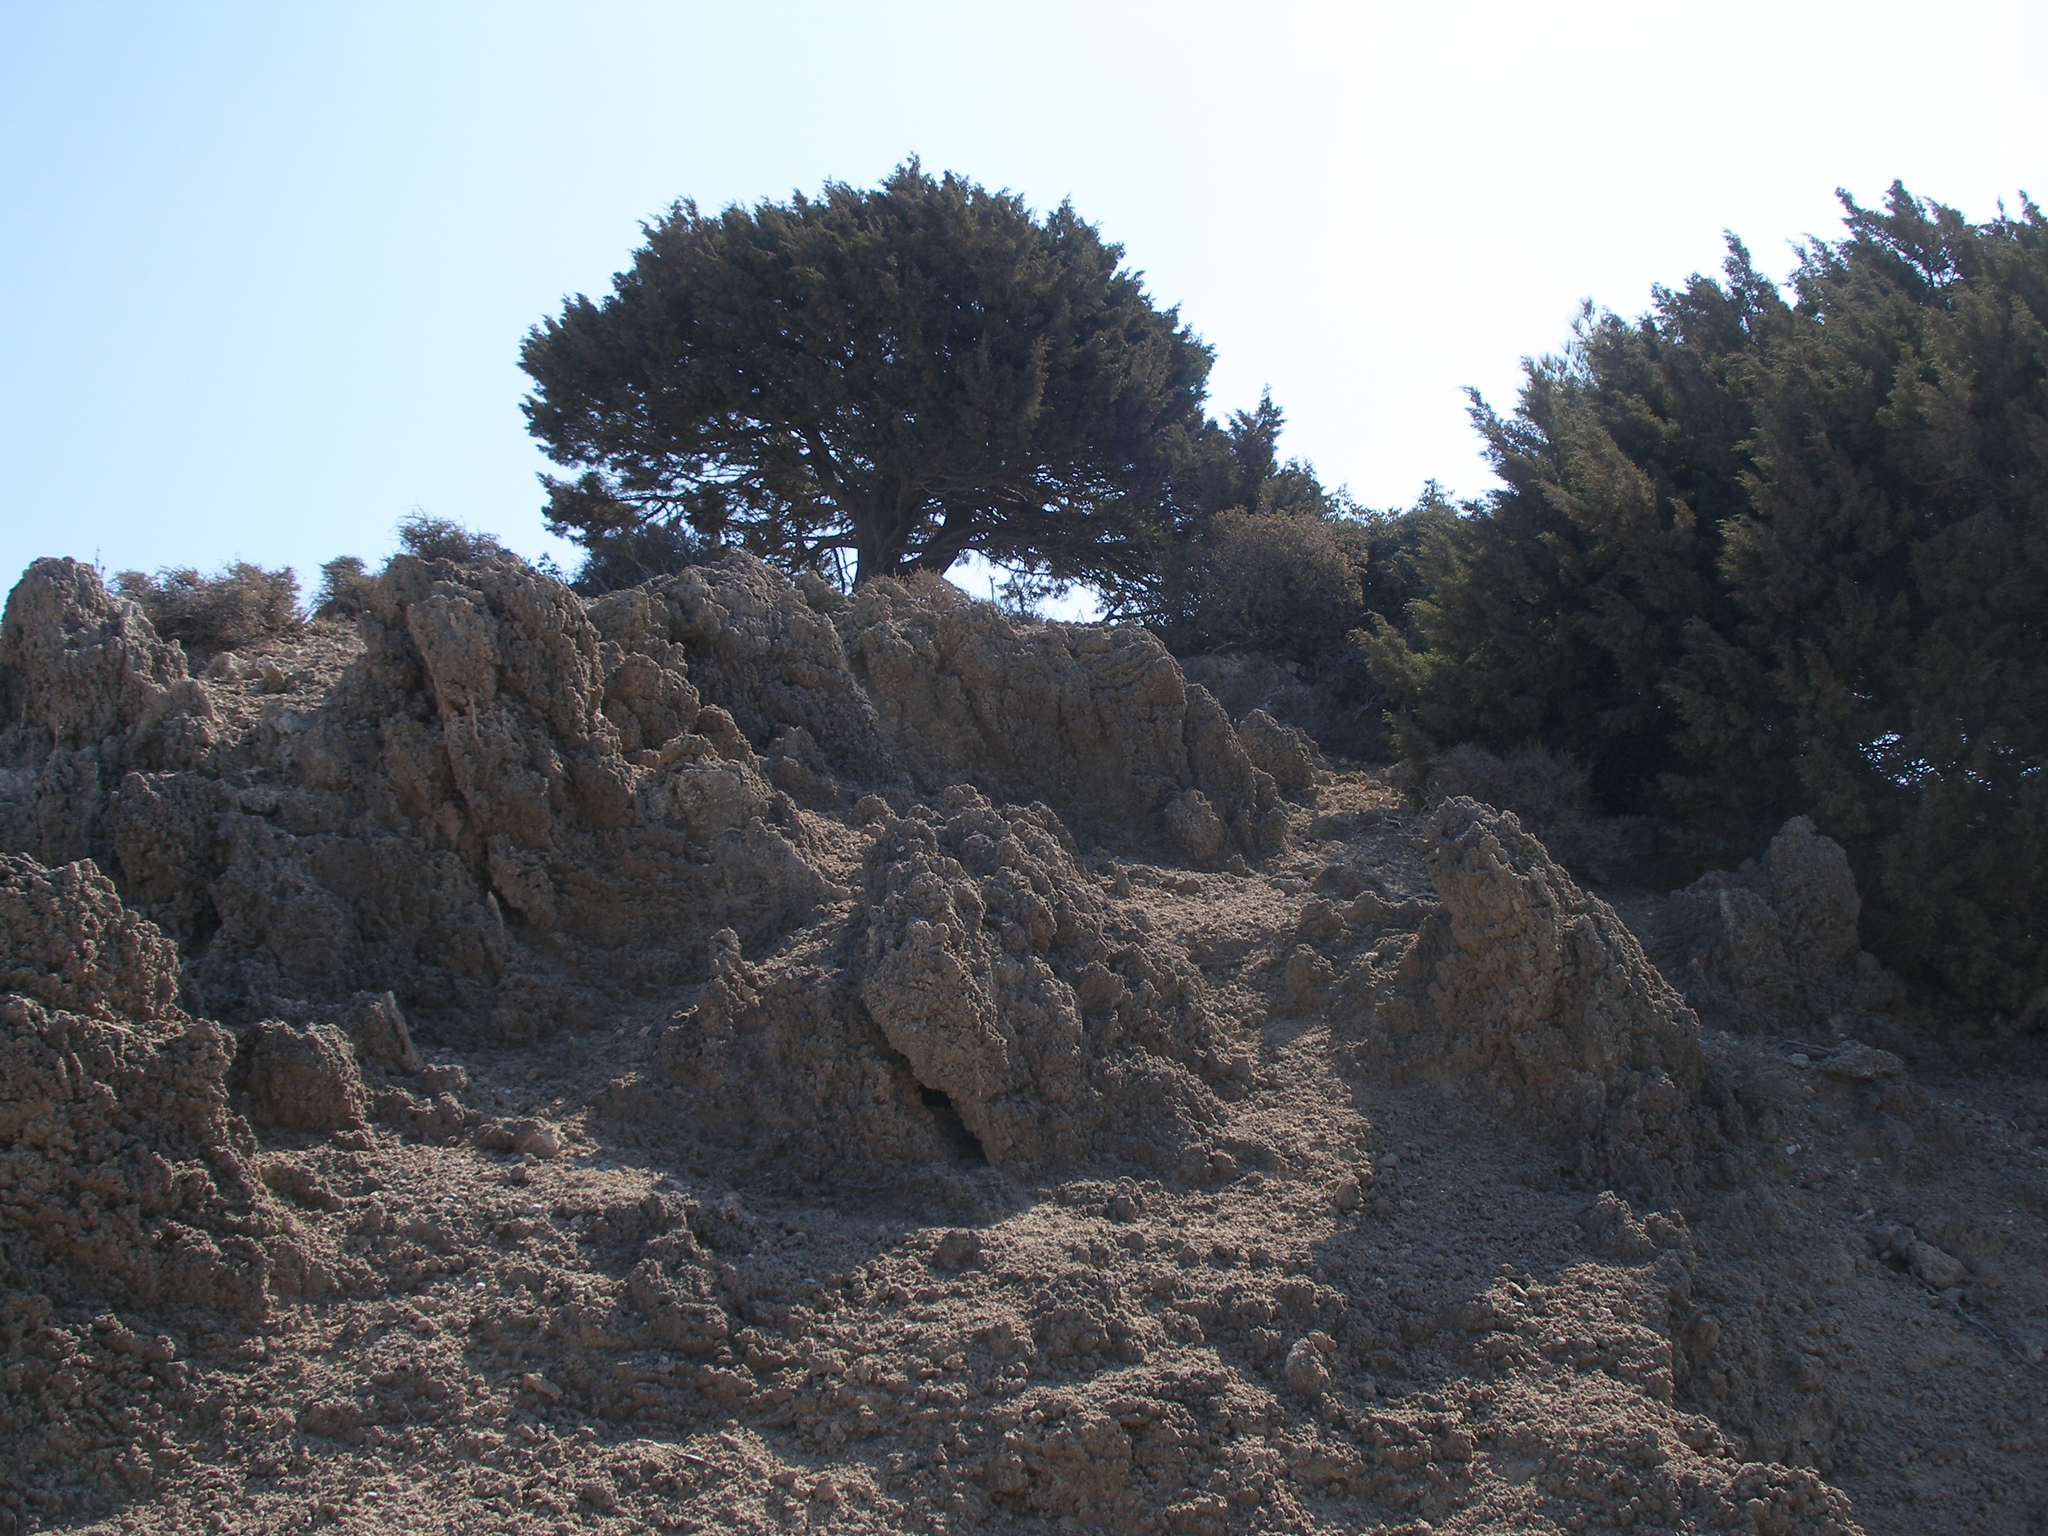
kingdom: Plantae
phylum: Tracheophyta
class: Pinopsida
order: Pinales
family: Cupressaceae
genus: Juniperus
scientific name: Juniperus phoenicea
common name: Phoenician juniper
